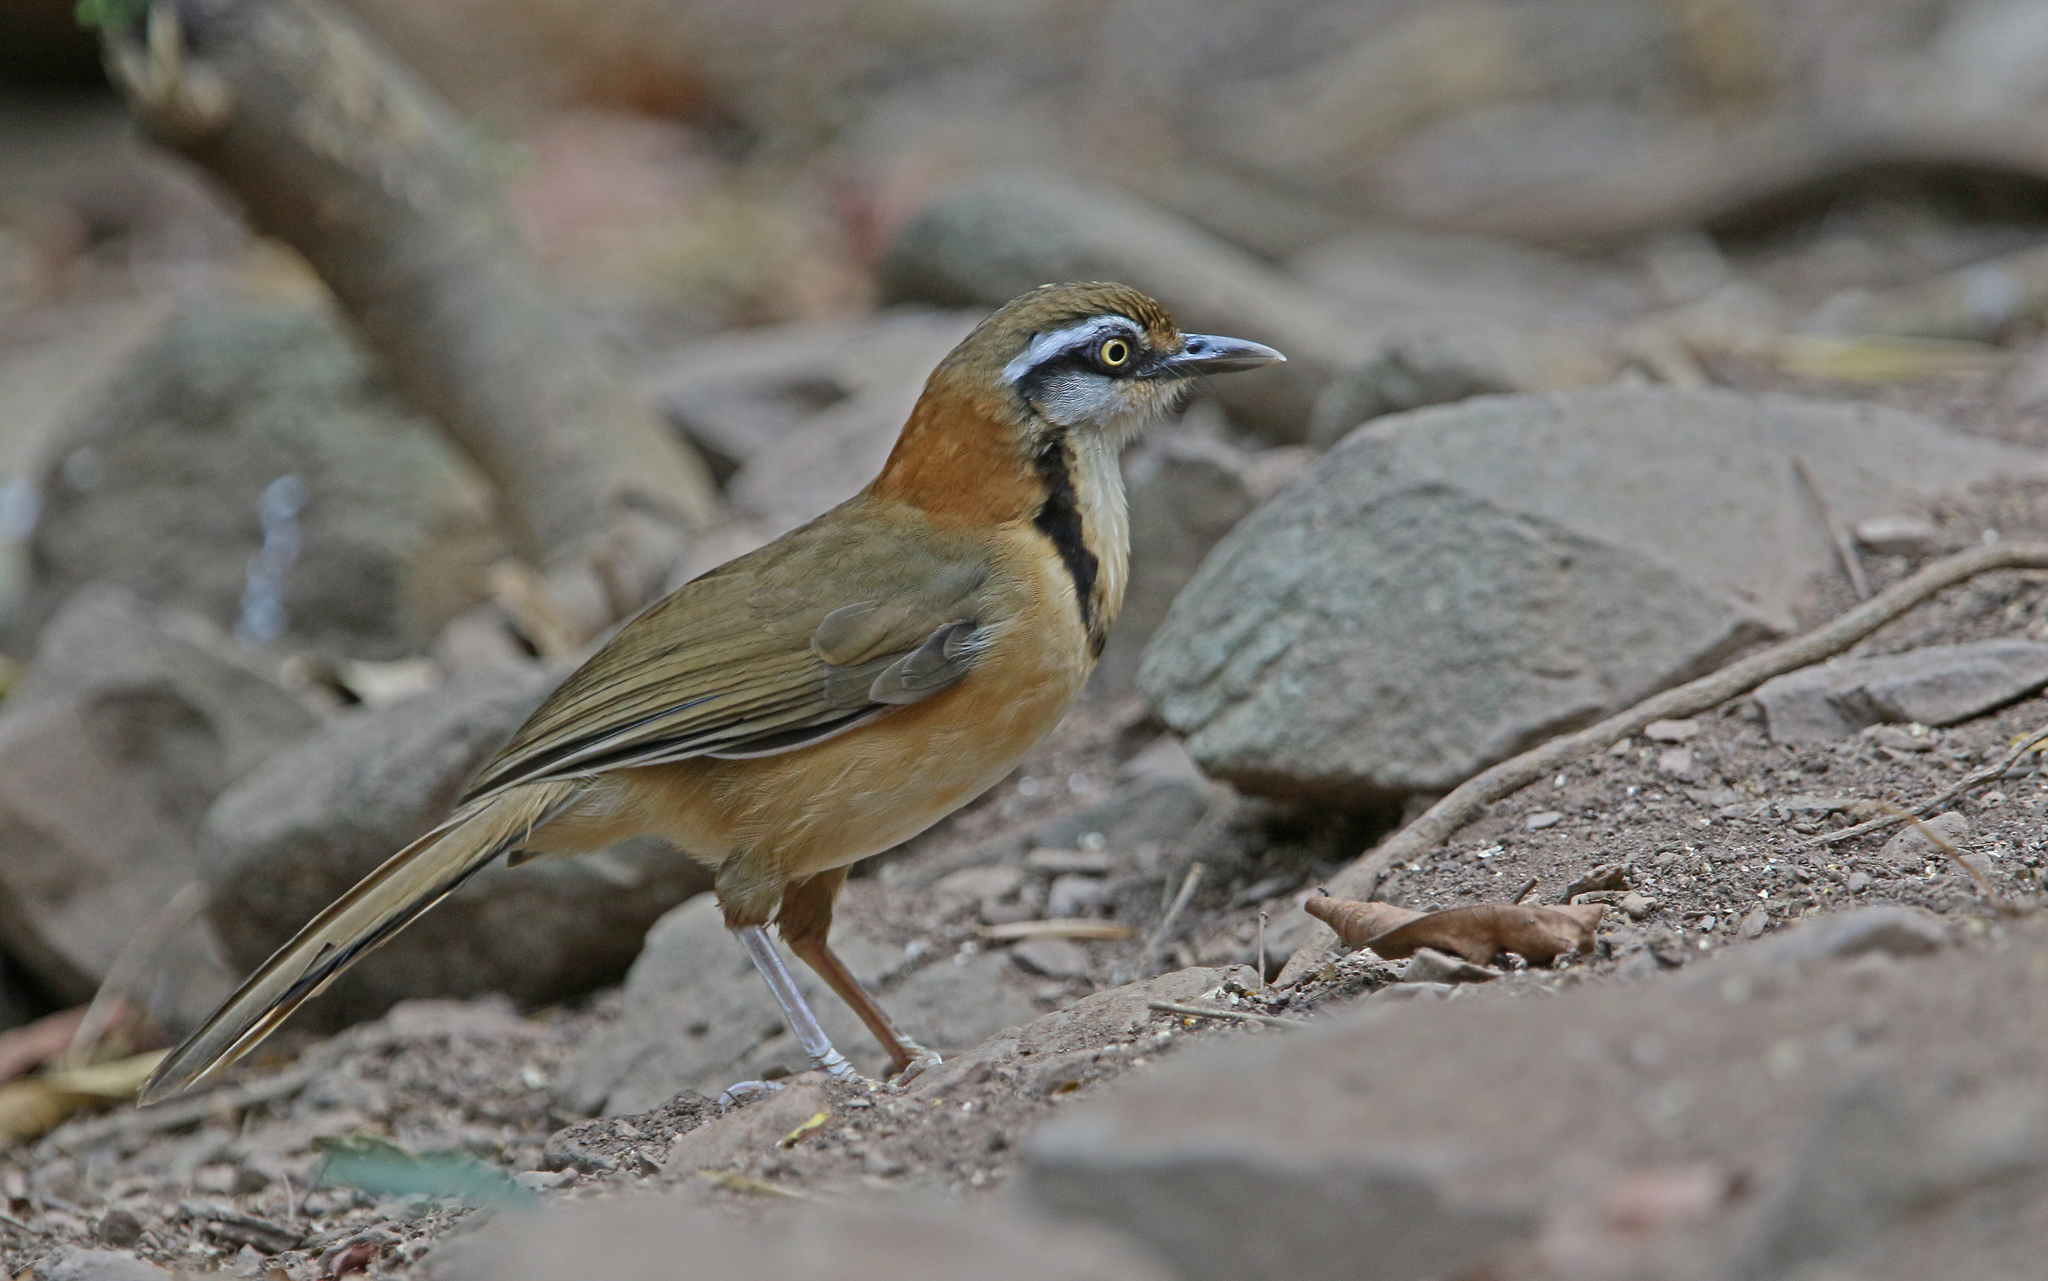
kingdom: Animalia
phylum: Chordata
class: Aves
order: Passeriformes
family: Leiothrichidae
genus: Garrulax
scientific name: Garrulax monileger
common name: Lesser necklaced laughingthrush
